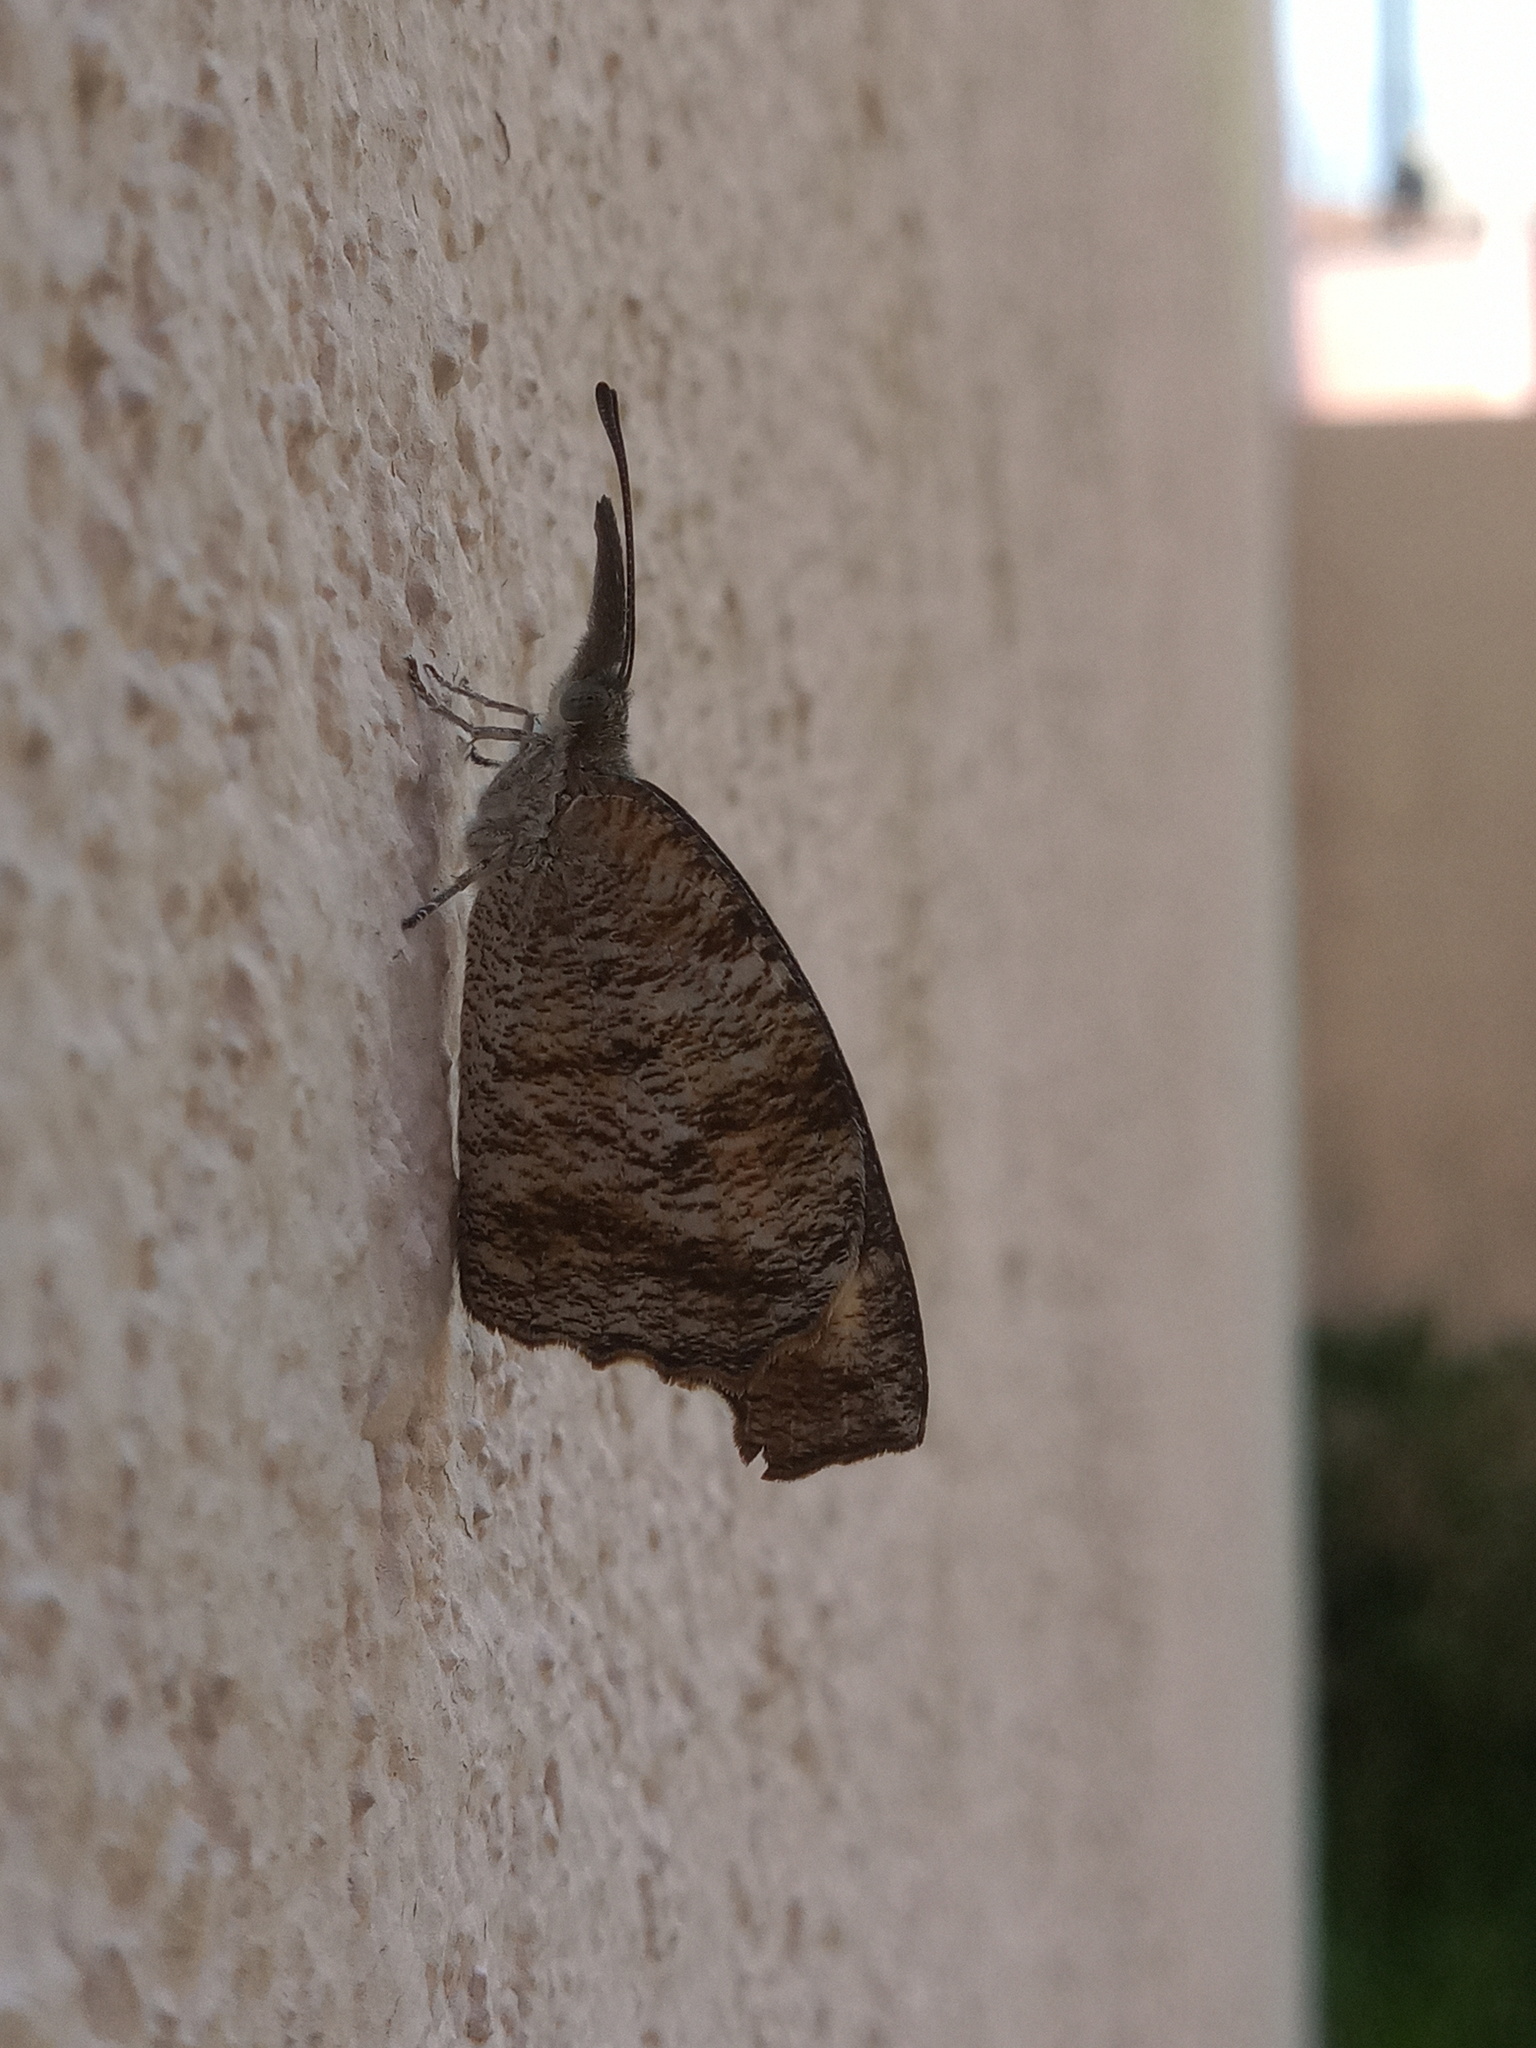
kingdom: Animalia
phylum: Arthropoda
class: Insecta
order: Lepidoptera
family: Nymphalidae
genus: Libytheana
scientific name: Libytheana carinenta
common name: American snout
